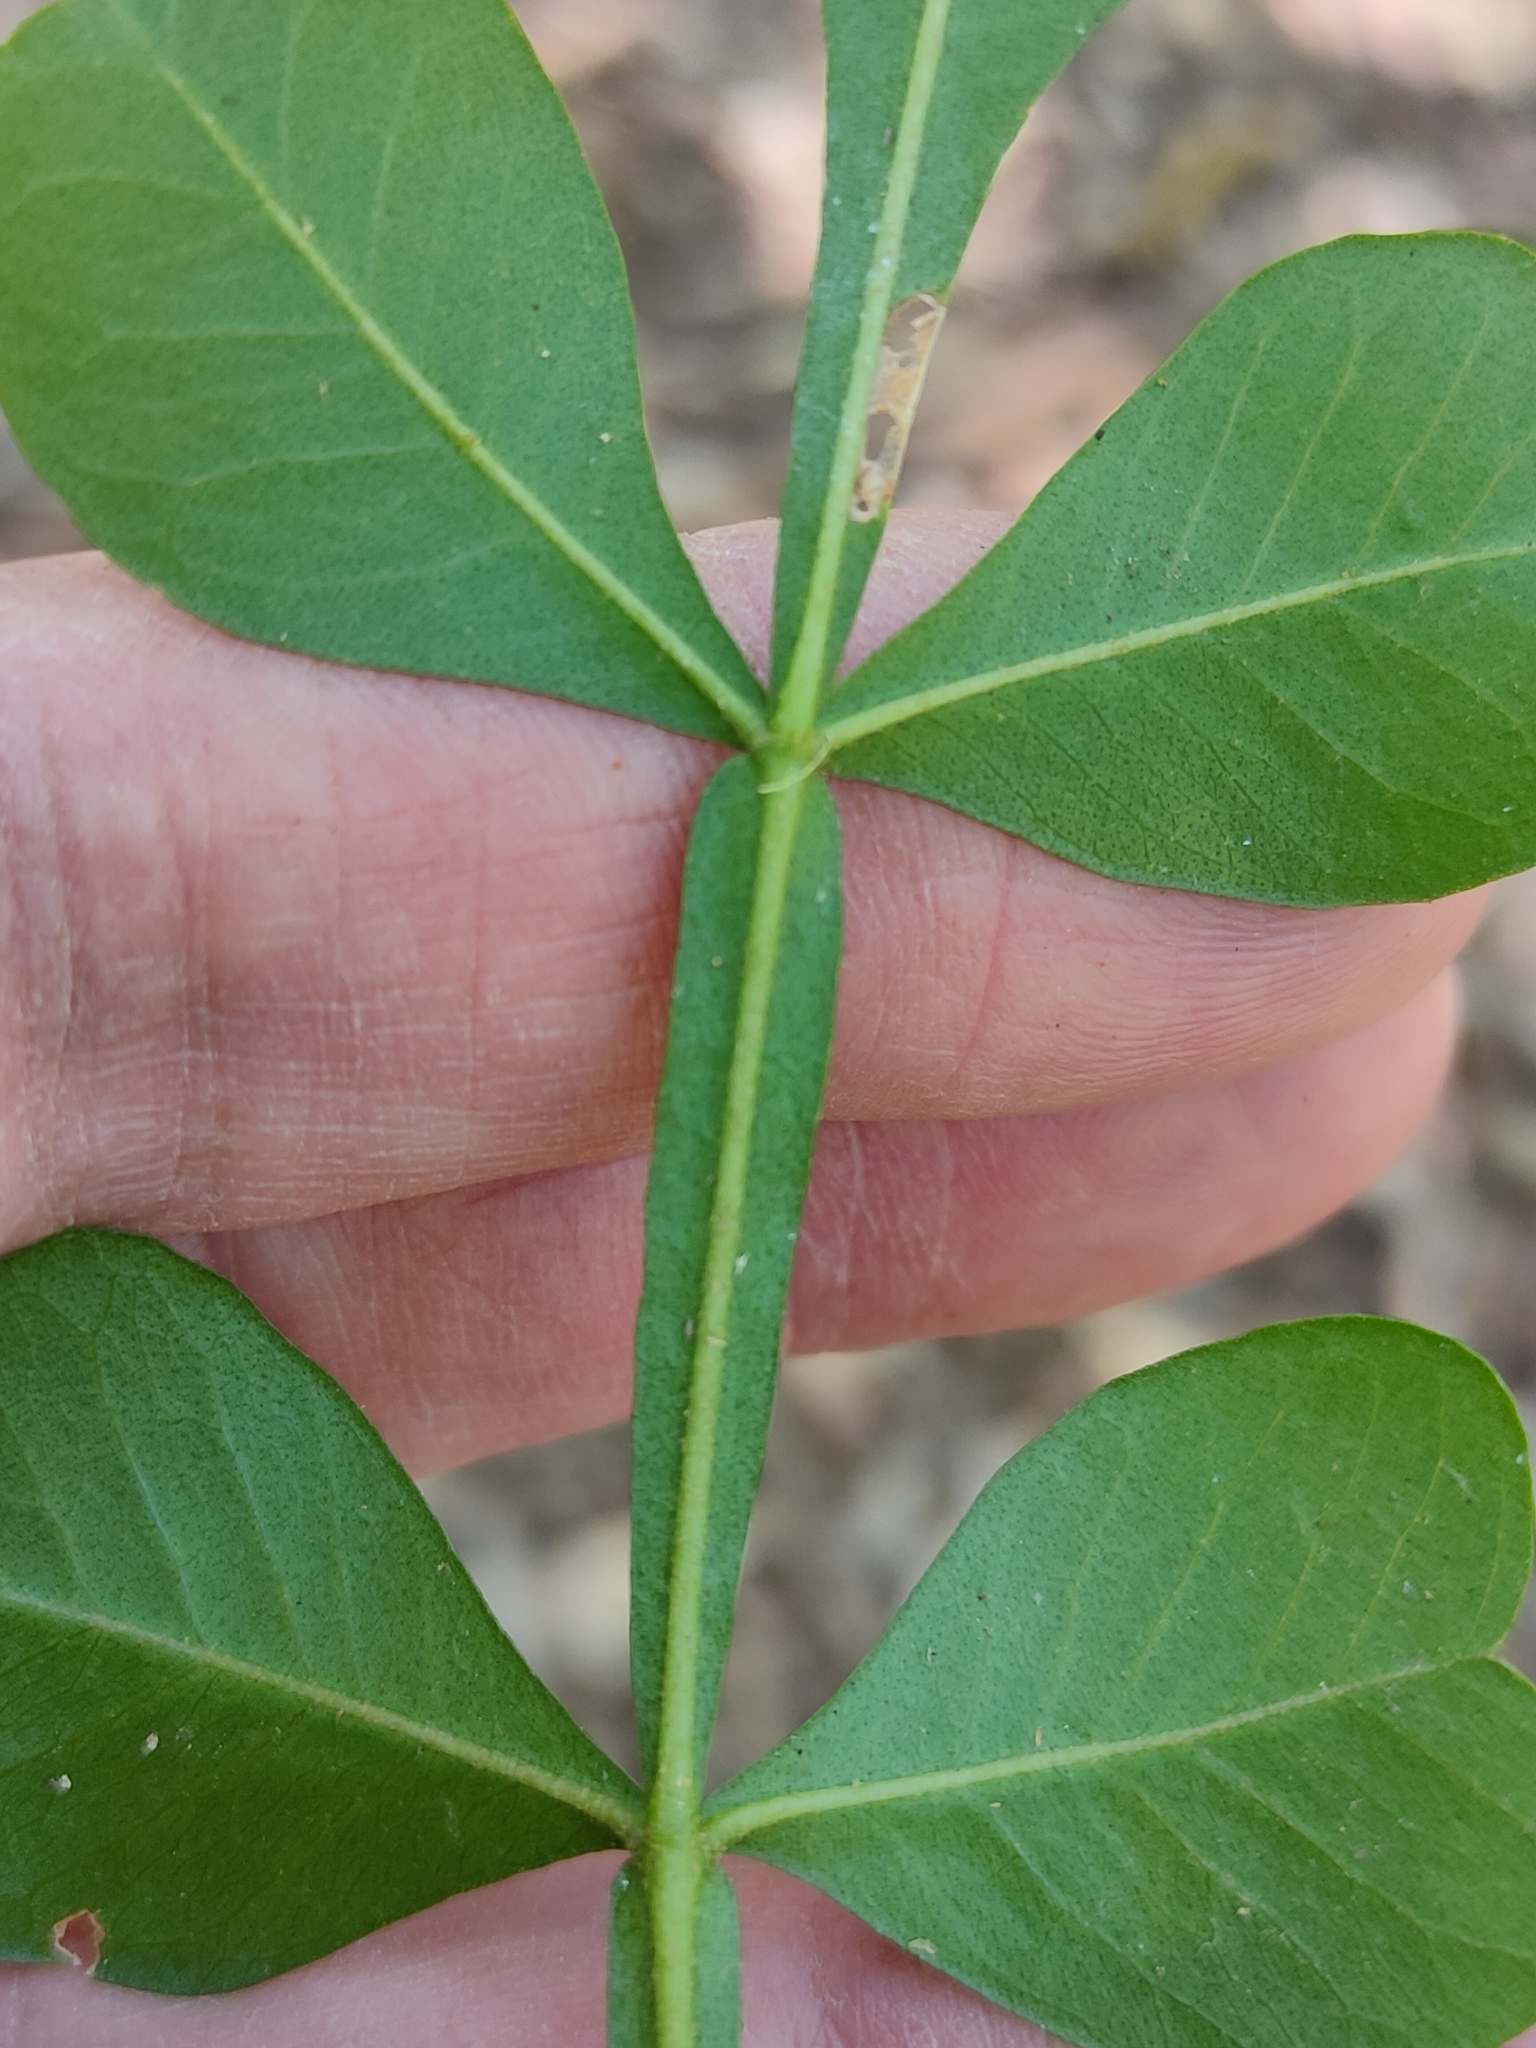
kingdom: Plantae
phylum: Tracheophyta
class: Magnoliopsida
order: Sapindales
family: Rutaceae
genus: Flindersia
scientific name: Flindersia collina
